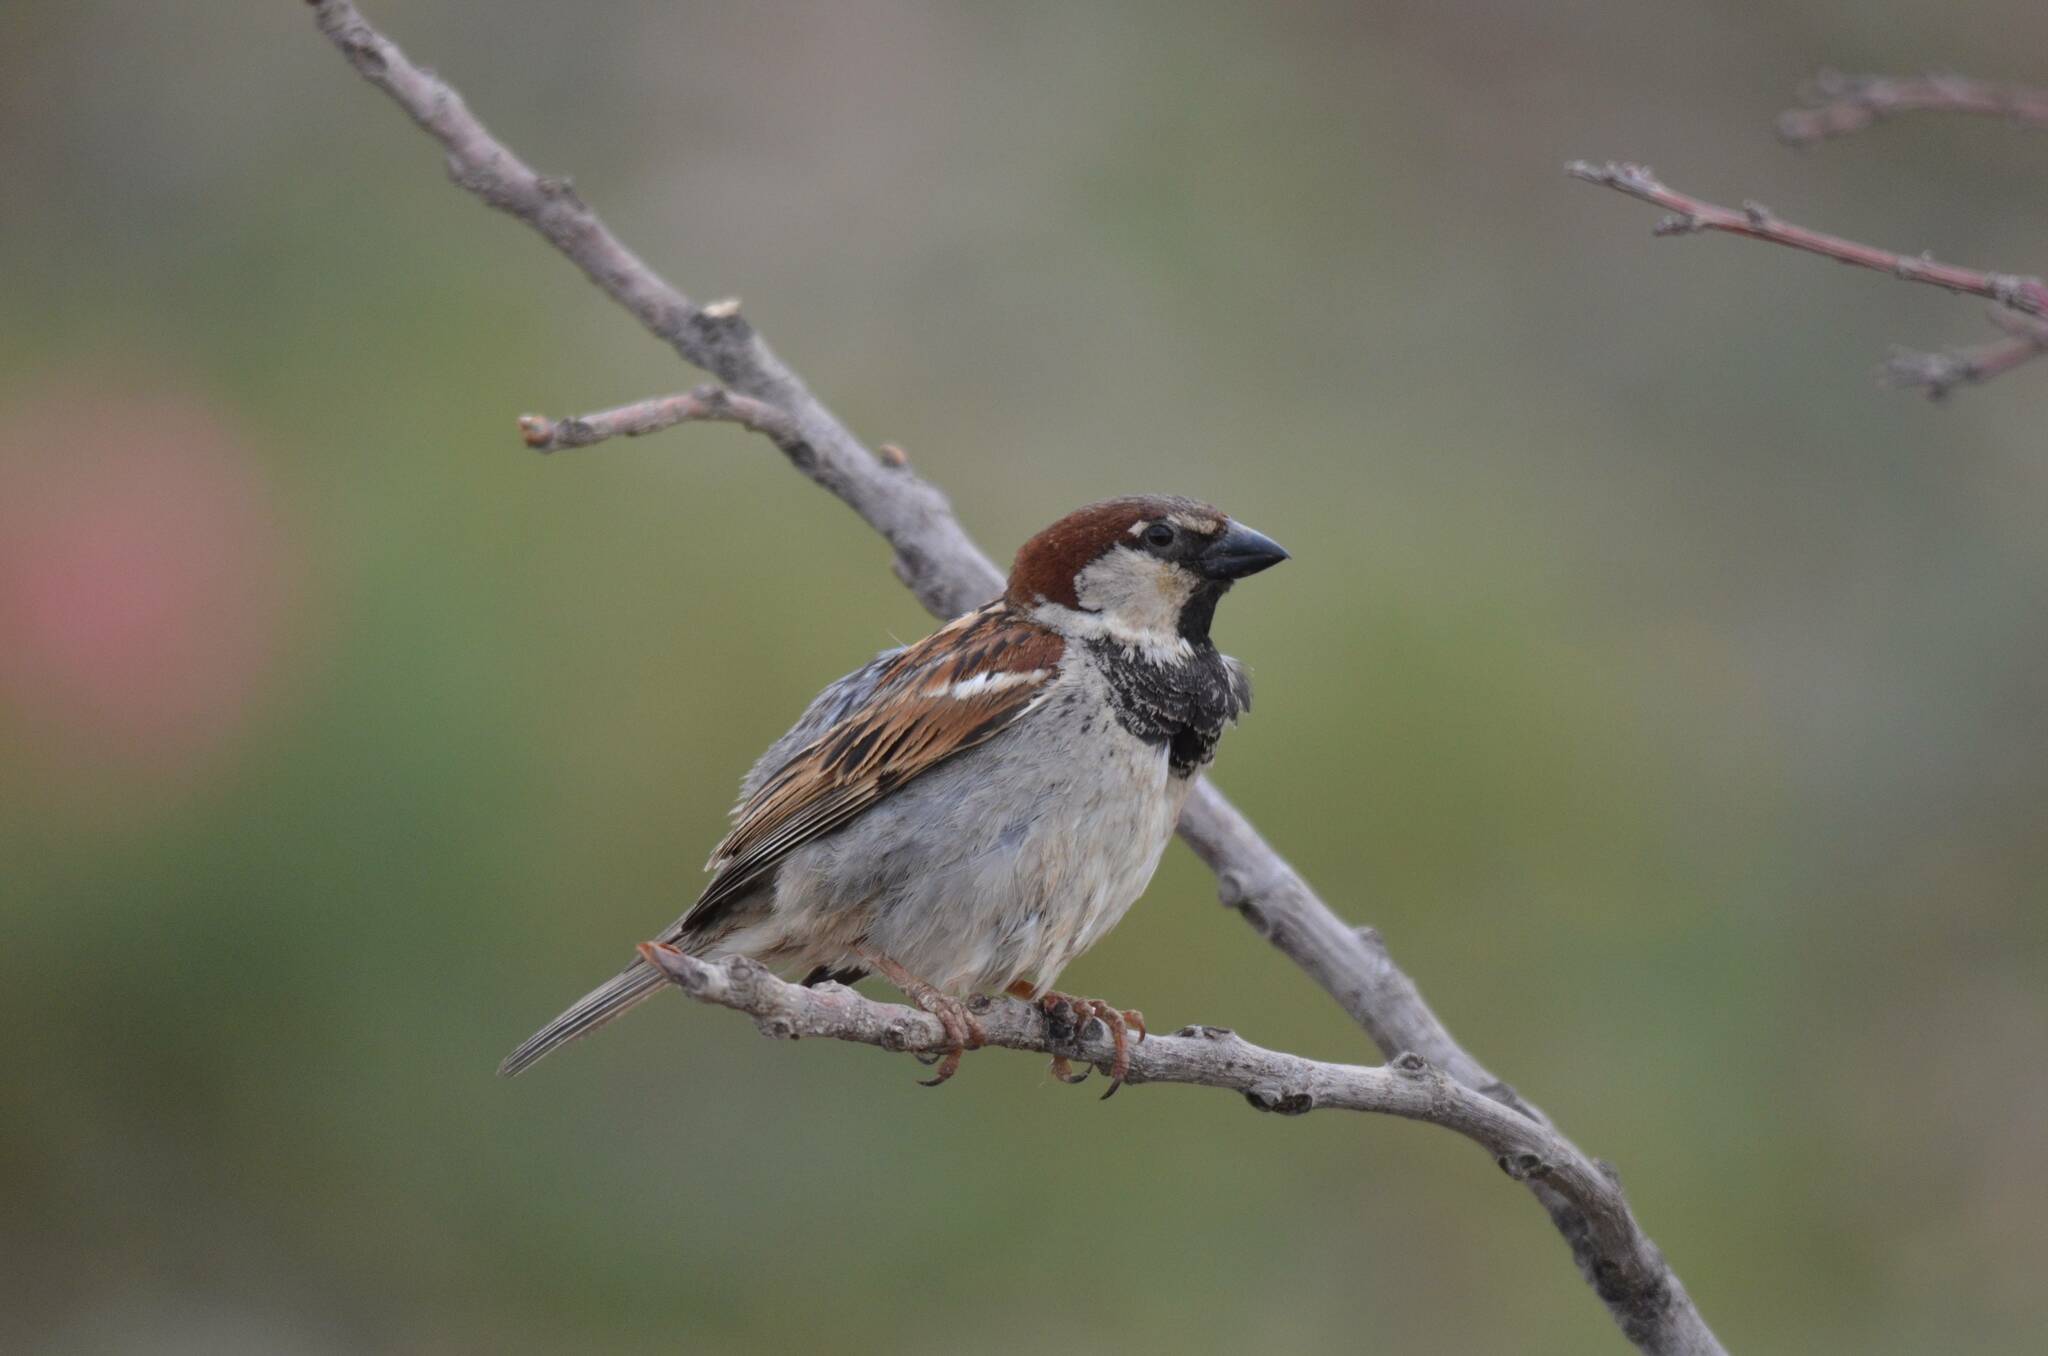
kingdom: Animalia
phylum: Chordata
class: Aves
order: Passeriformes
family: Passeridae
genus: Passer
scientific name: Passer domesticus
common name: House sparrow
